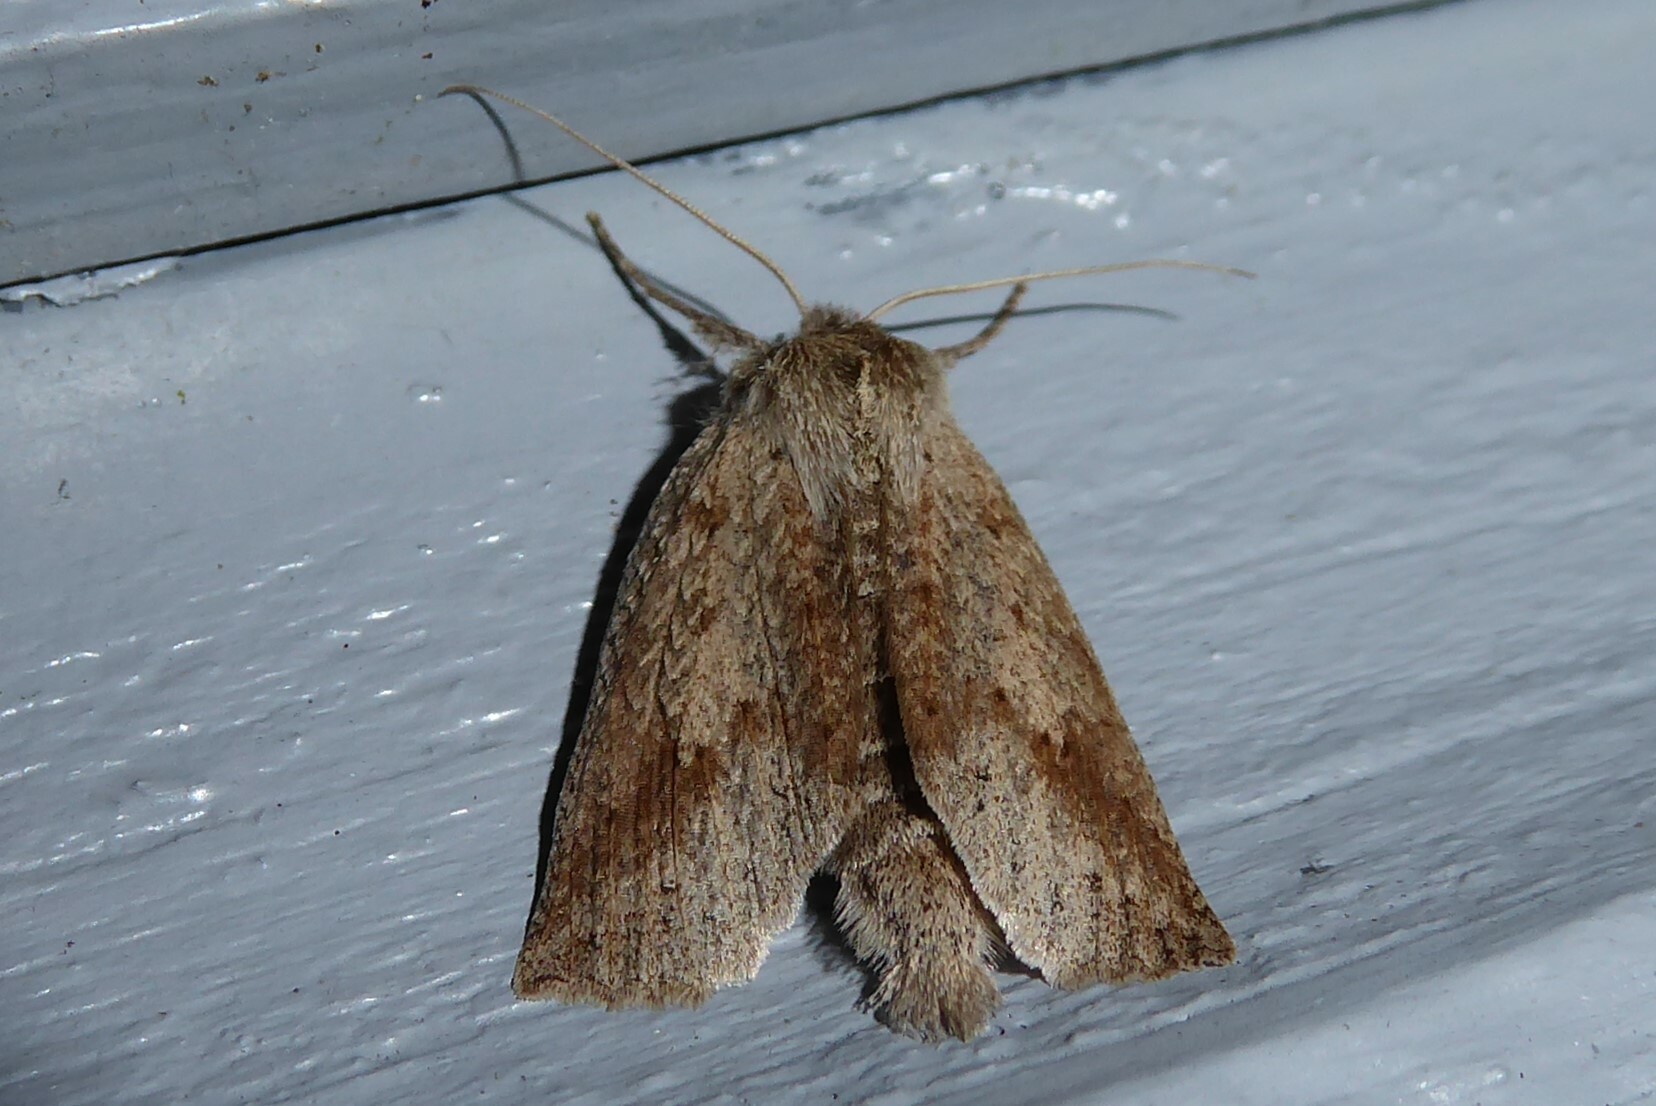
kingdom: Animalia
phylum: Arthropoda
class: Insecta
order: Lepidoptera
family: Geometridae
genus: Declana
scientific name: Declana leptomera
